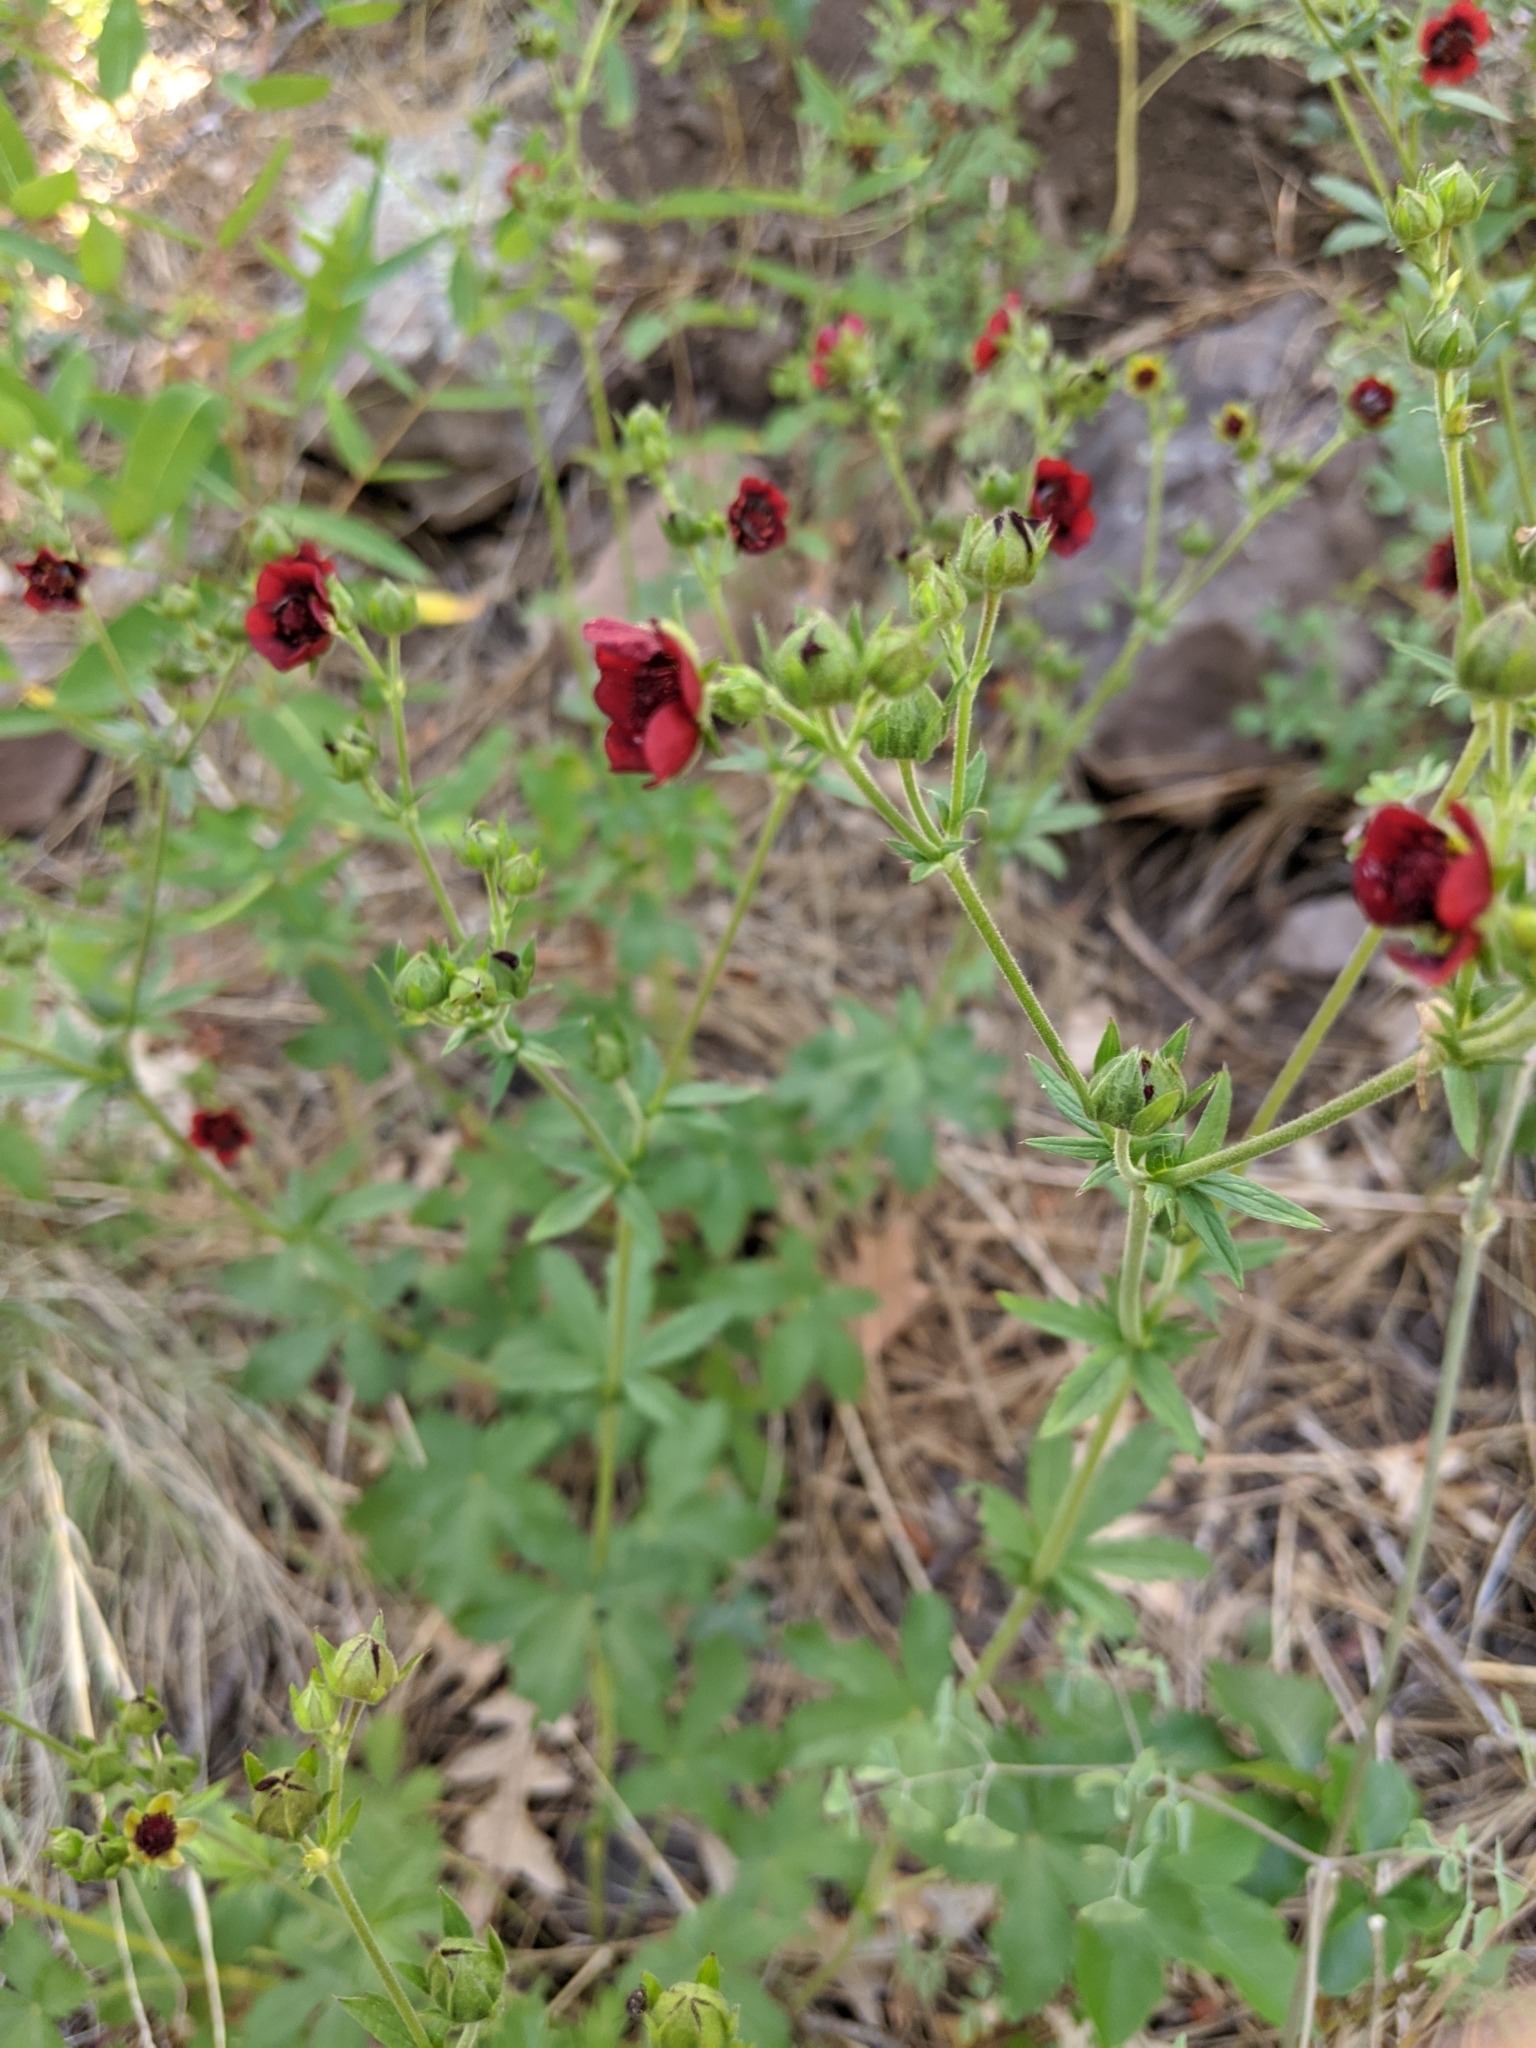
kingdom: Plantae
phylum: Tracheophyta
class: Magnoliopsida
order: Rosales
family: Rosaceae
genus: Potentilla
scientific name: Potentilla thurberi
